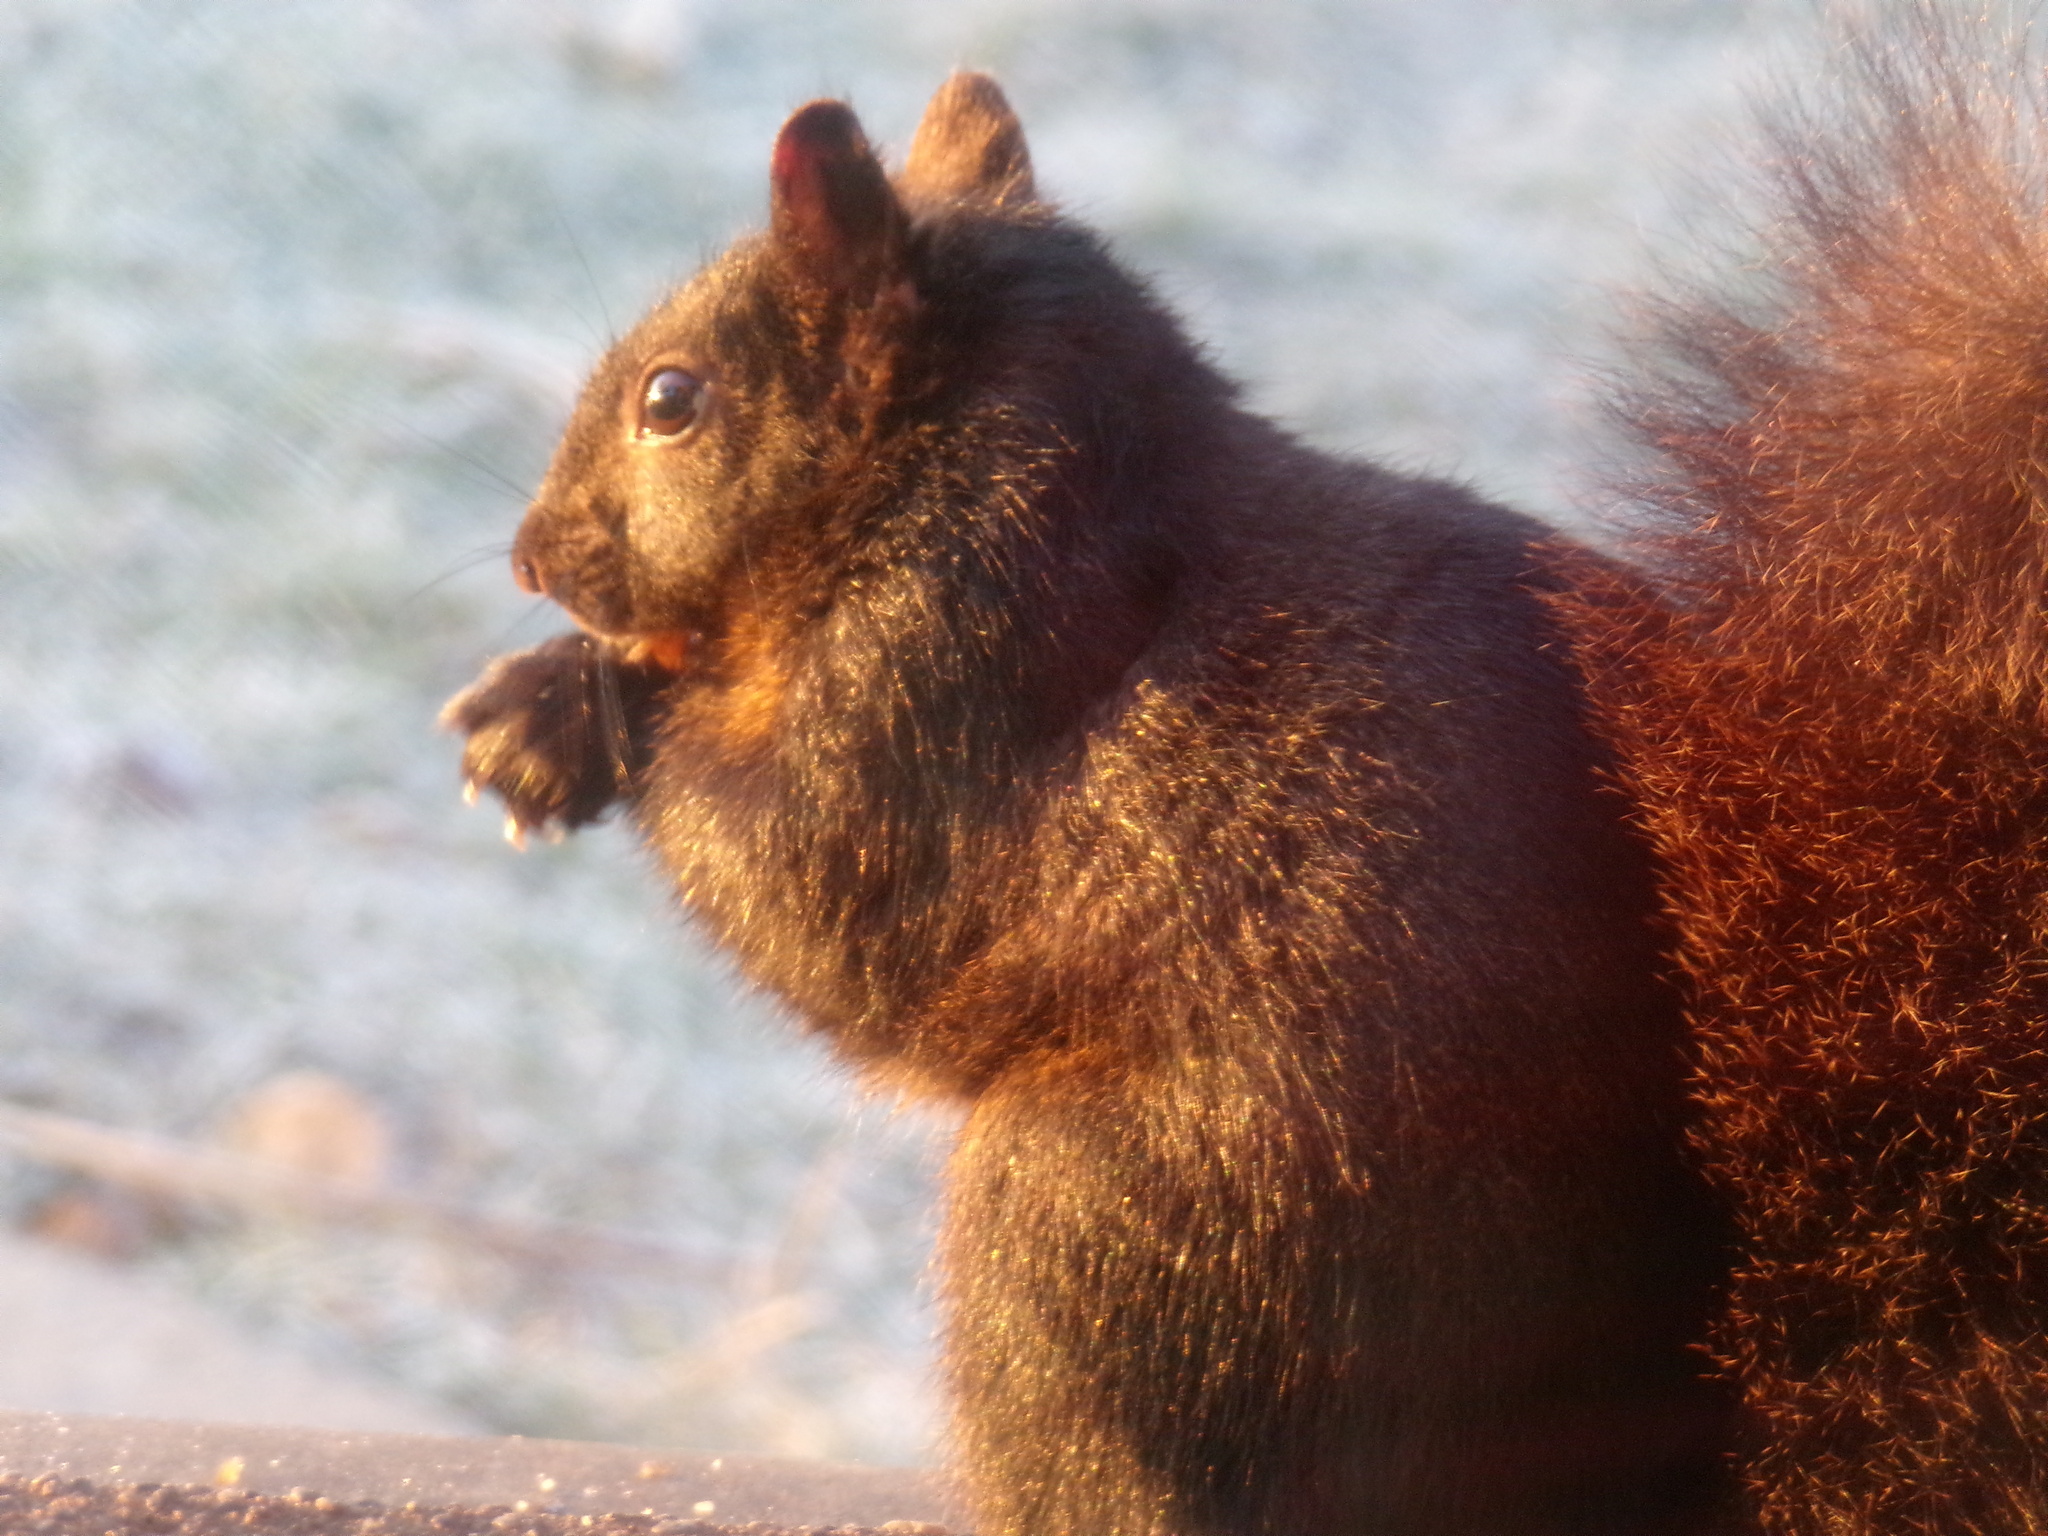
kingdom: Animalia
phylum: Chordata
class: Mammalia
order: Rodentia
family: Sciuridae
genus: Sciurus
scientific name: Sciurus carolinensis
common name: Eastern gray squirrel
